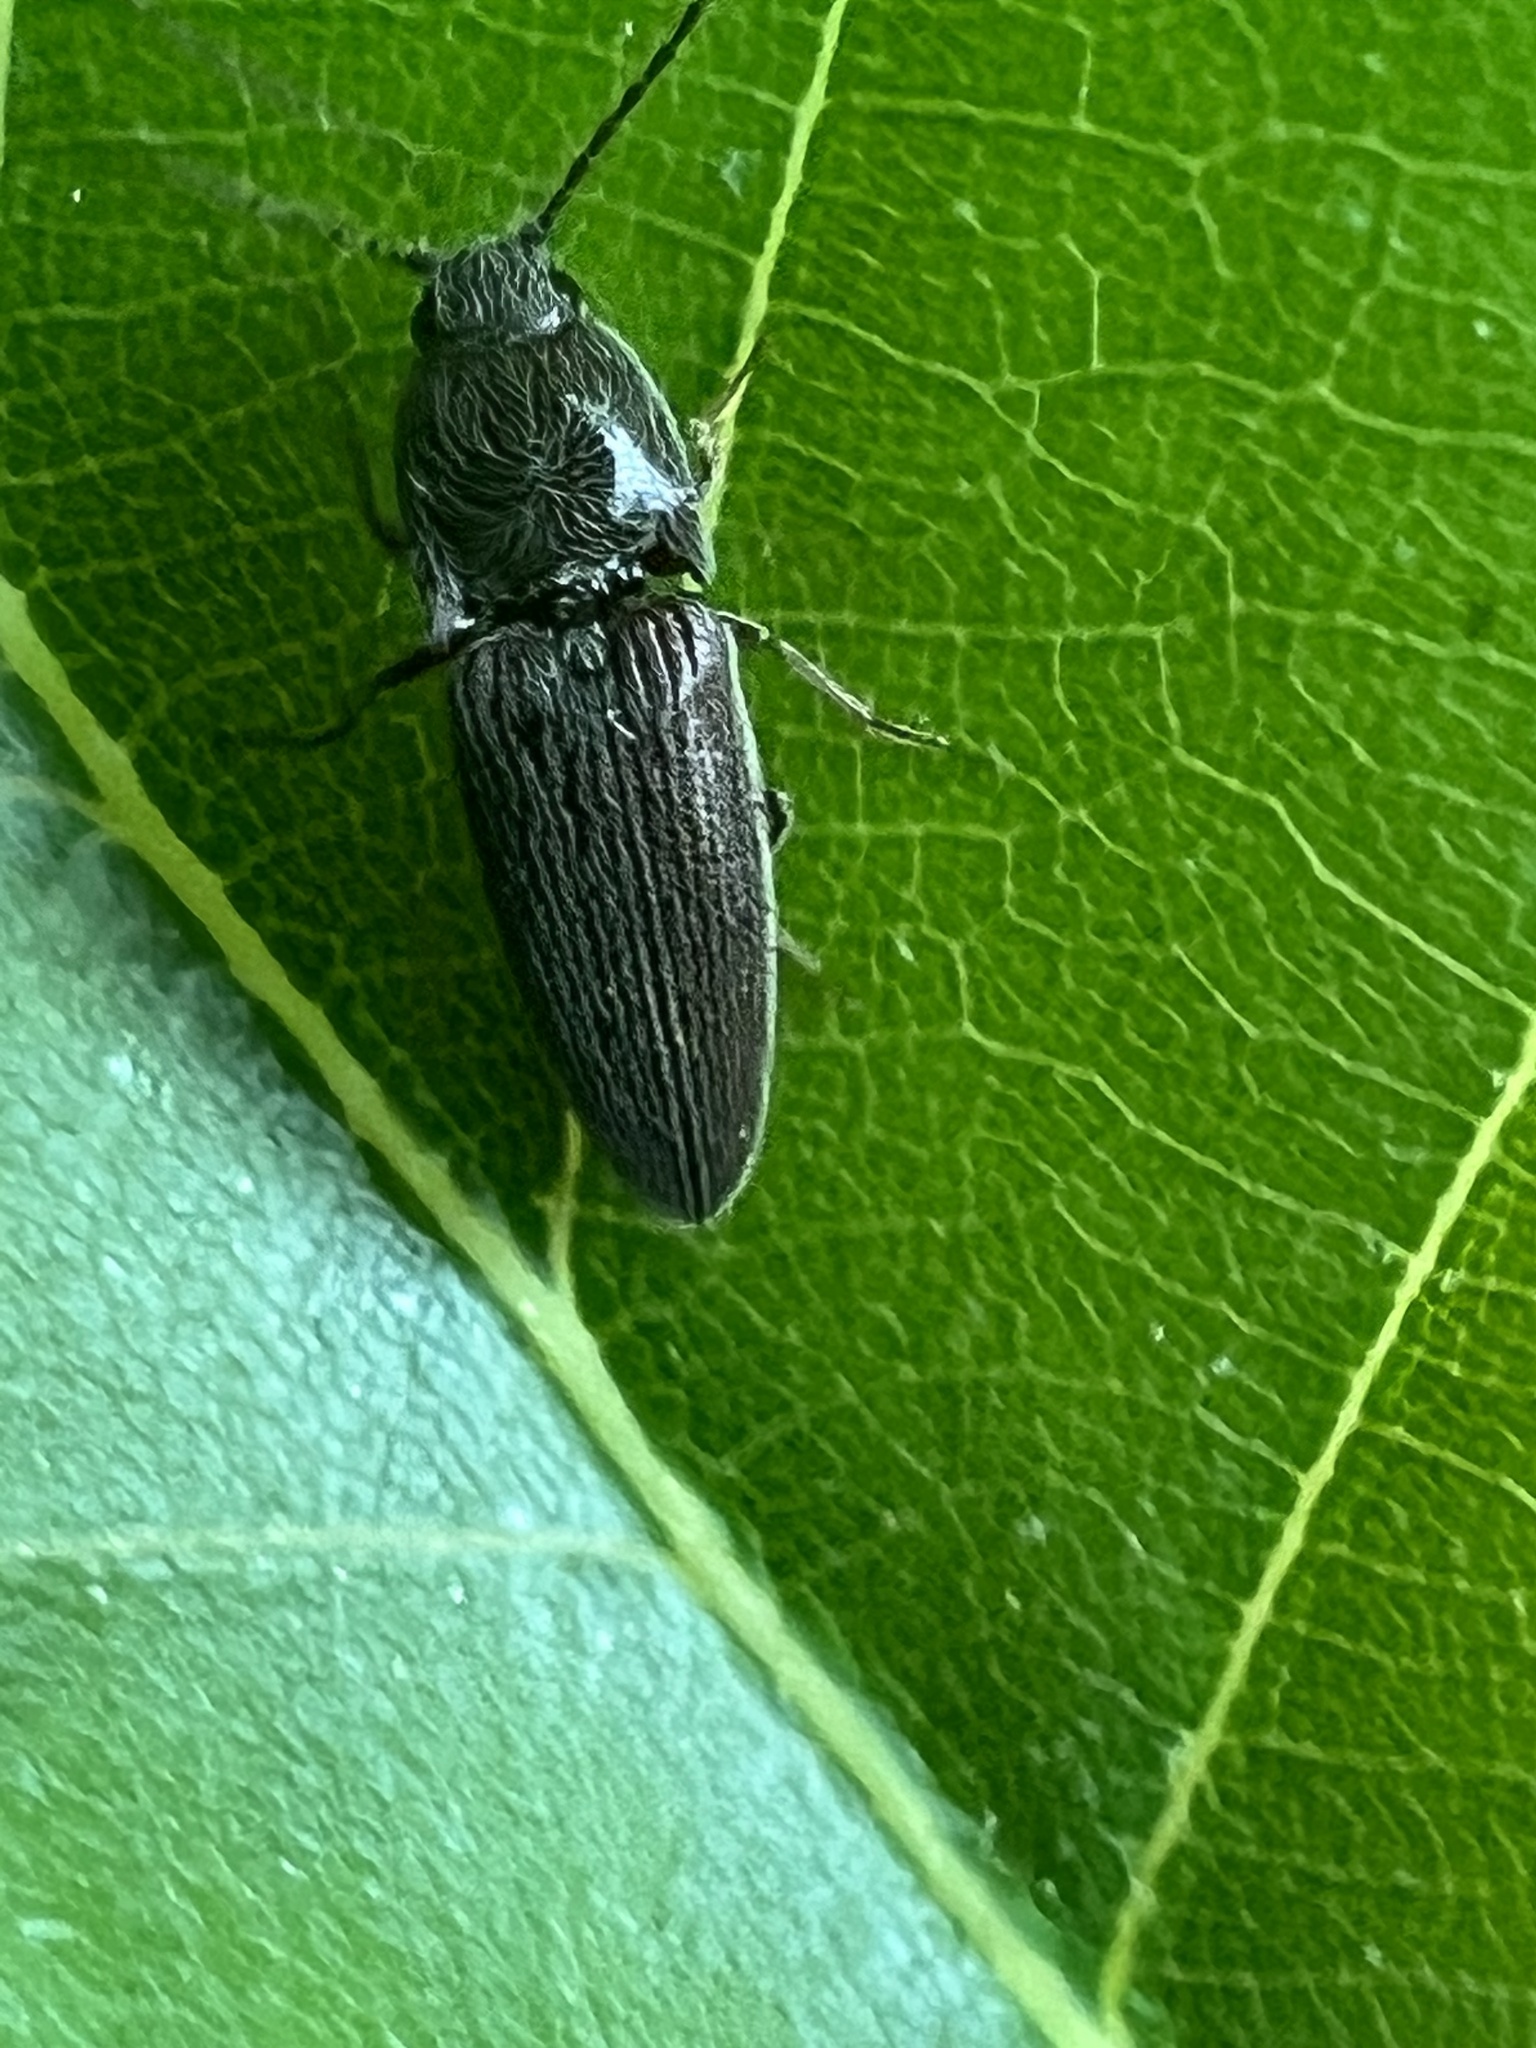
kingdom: Animalia
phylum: Arthropoda
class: Insecta
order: Coleoptera
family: Elateridae
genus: Melanotus
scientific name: Melanotus americanus
